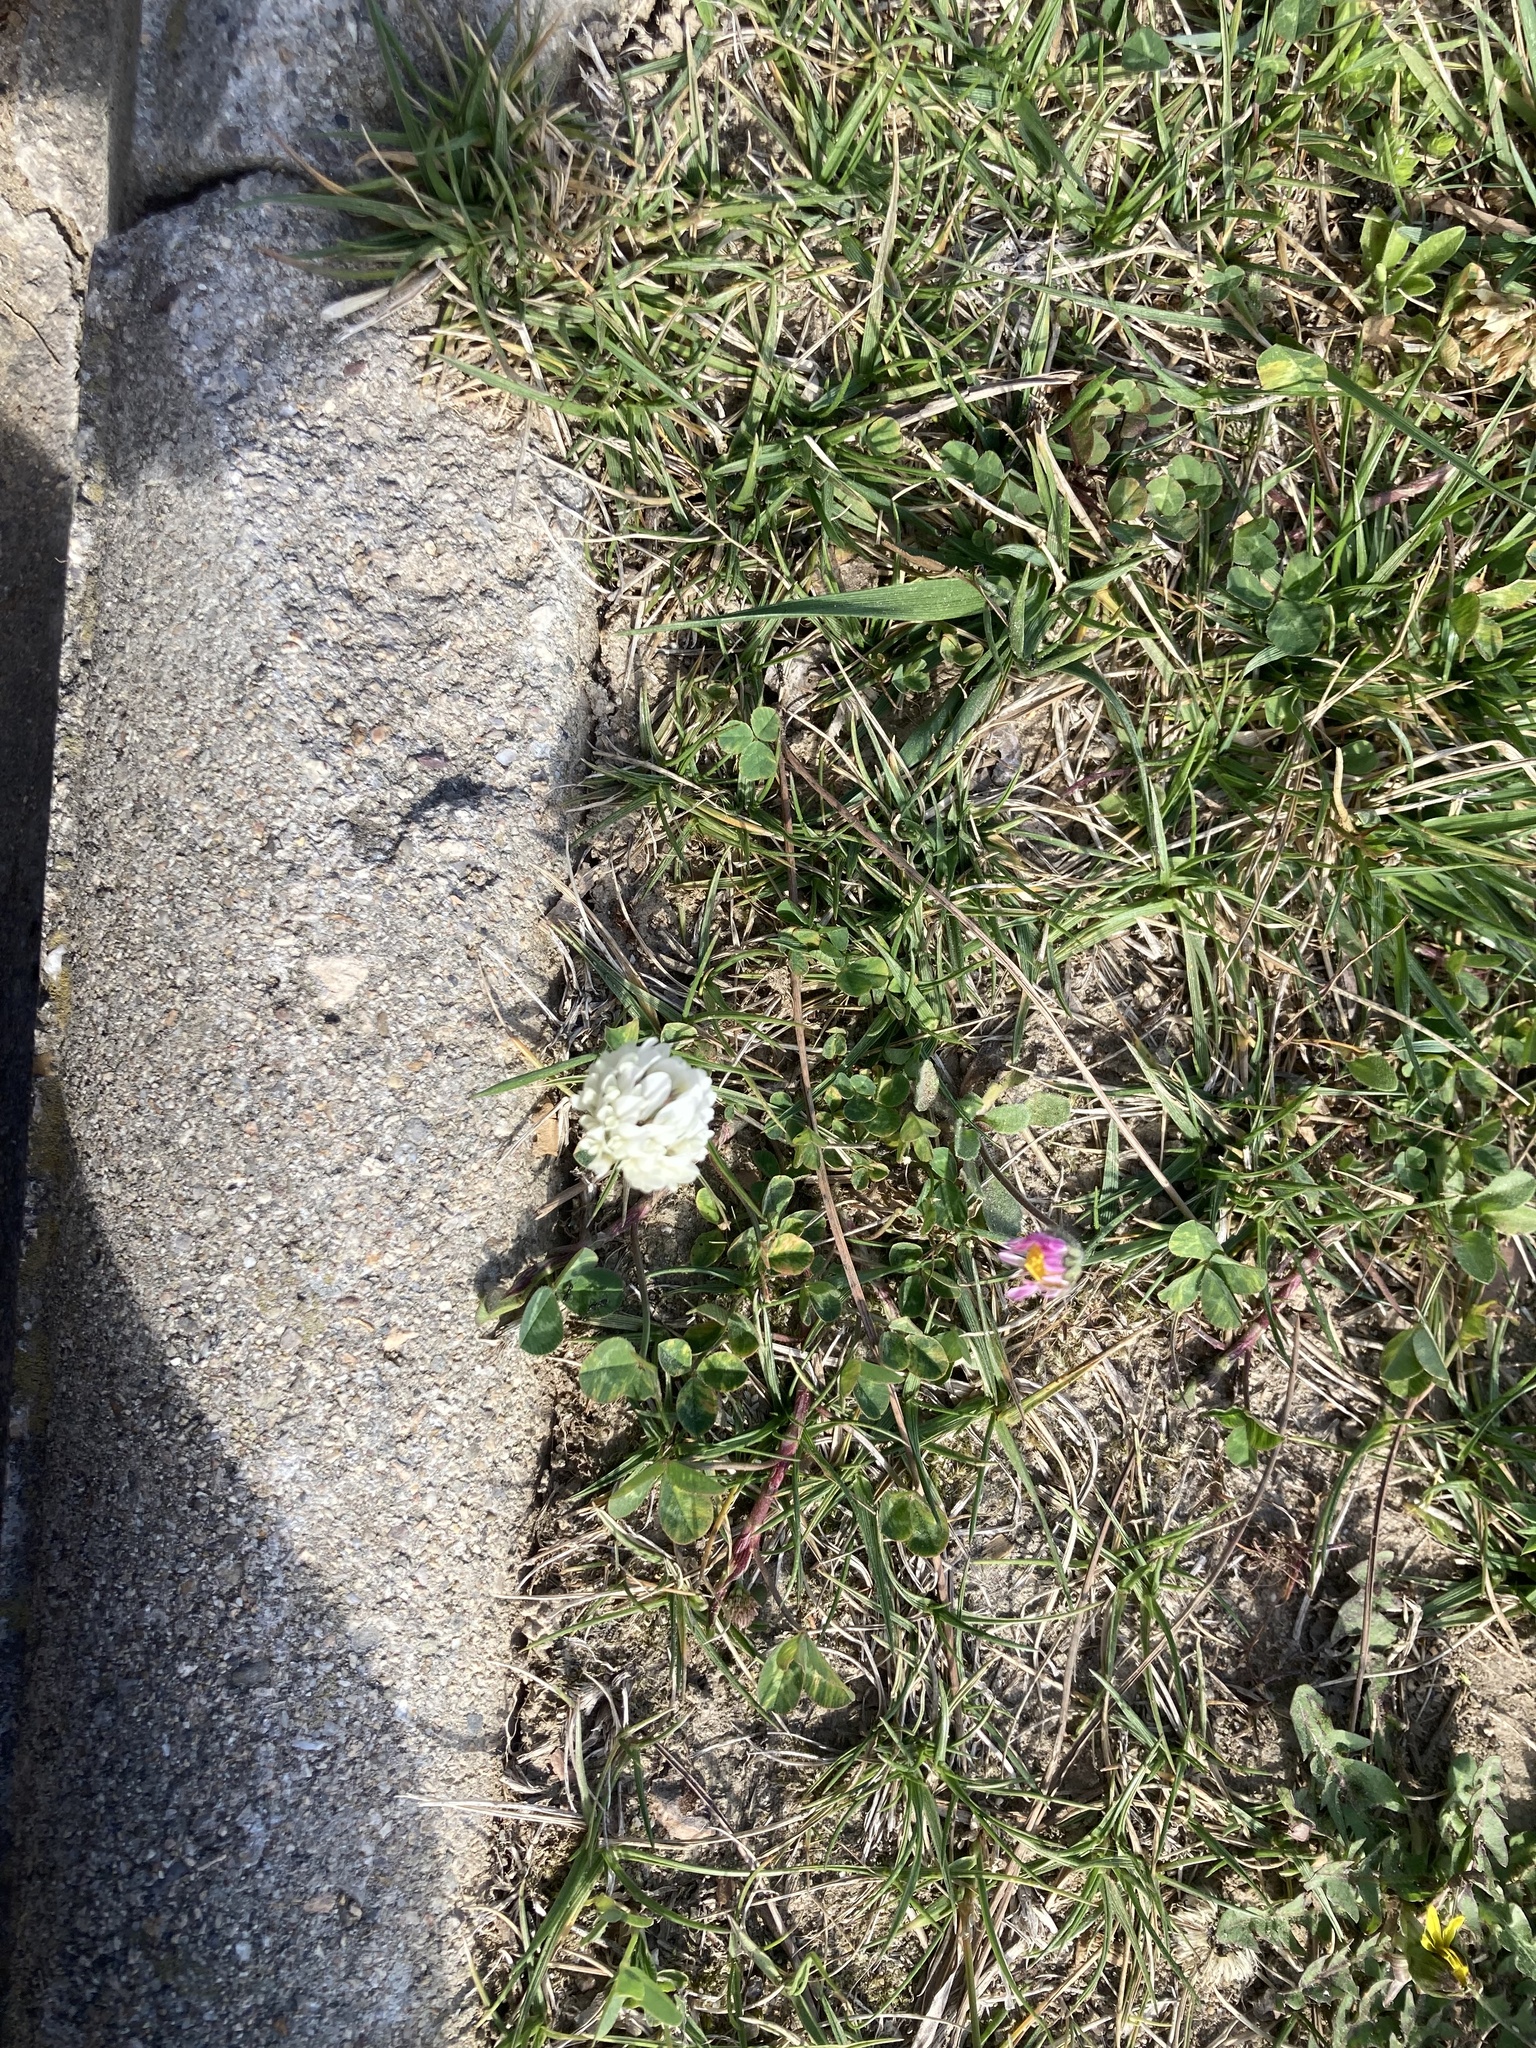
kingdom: Plantae
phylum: Tracheophyta
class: Magnoliopsida
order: Fabales
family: Fabaceae
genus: Trifolium
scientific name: Trifolium repens
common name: White clover
